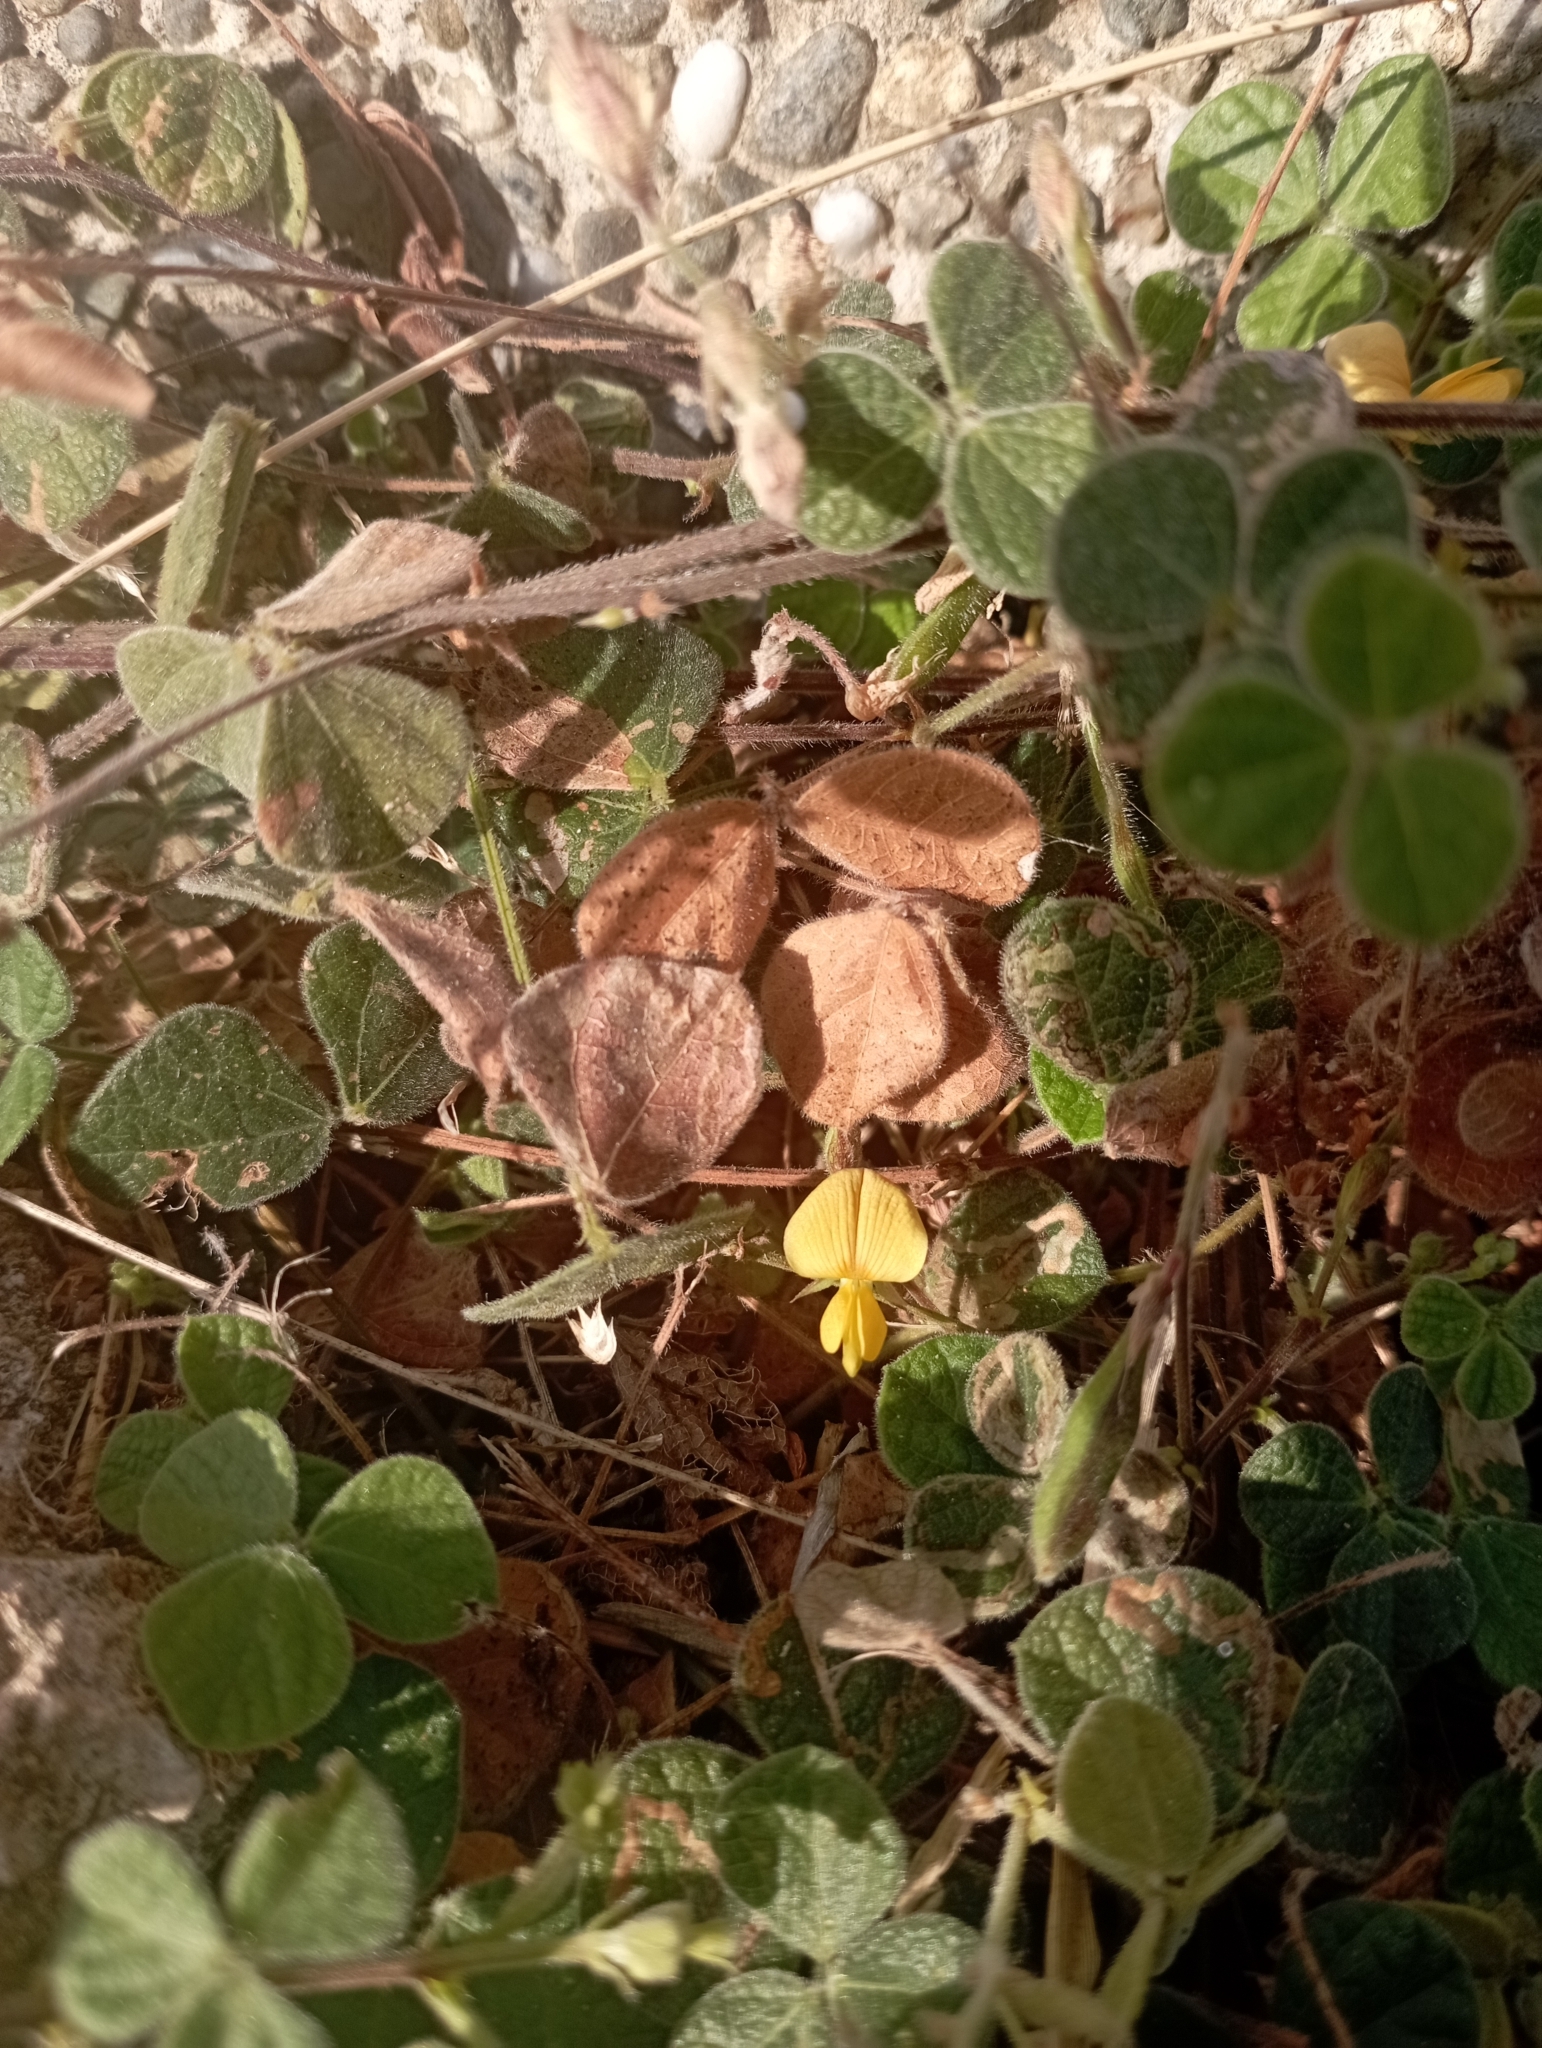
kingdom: Plantae
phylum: Tracheophyta
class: Magnoliopsida
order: Fabales
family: Fabaceae
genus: Rhynchosia
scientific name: Rhynchosia minima
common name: Least snoutbean
